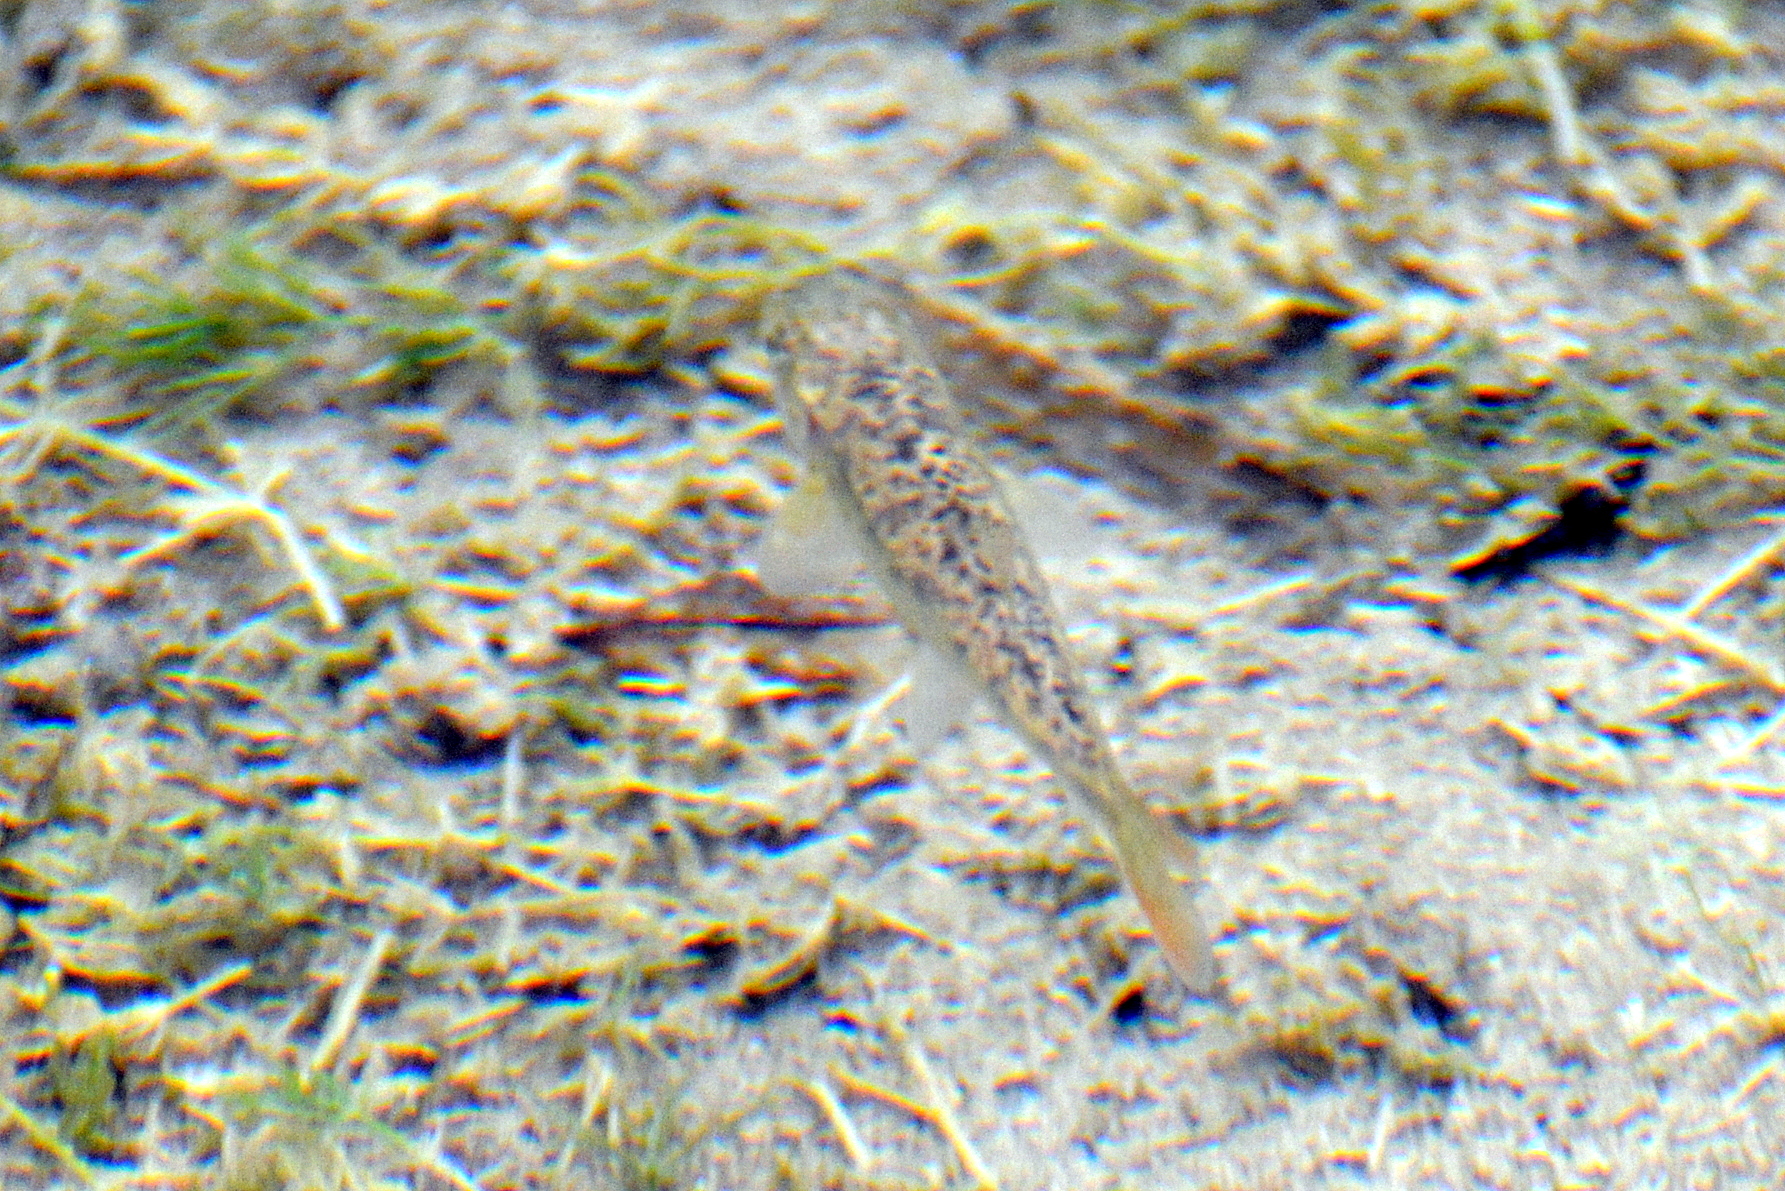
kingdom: Animalia
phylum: Chordata
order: Cypriniformes
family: Cyprinidae
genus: Barbus
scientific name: Barbus plebejus
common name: Padanian barbel
